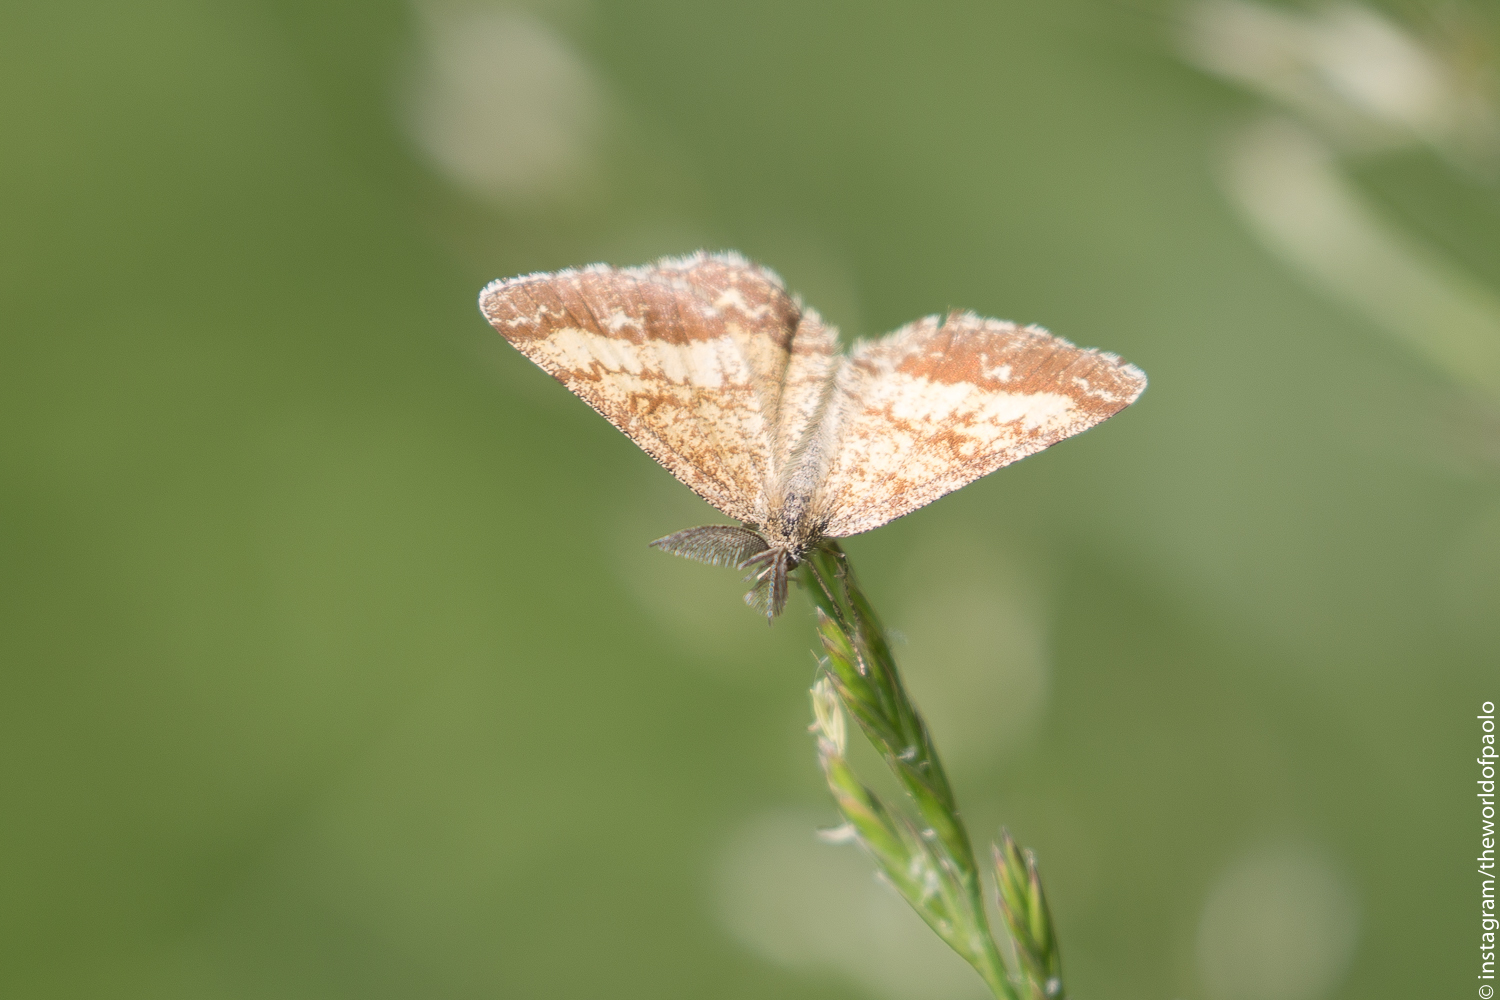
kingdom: Animalia
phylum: Arthropoda
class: Insecta
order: Lepidoptera
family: Geometridae
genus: Ematurga
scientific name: Ematurga atomaria
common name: Common heath
